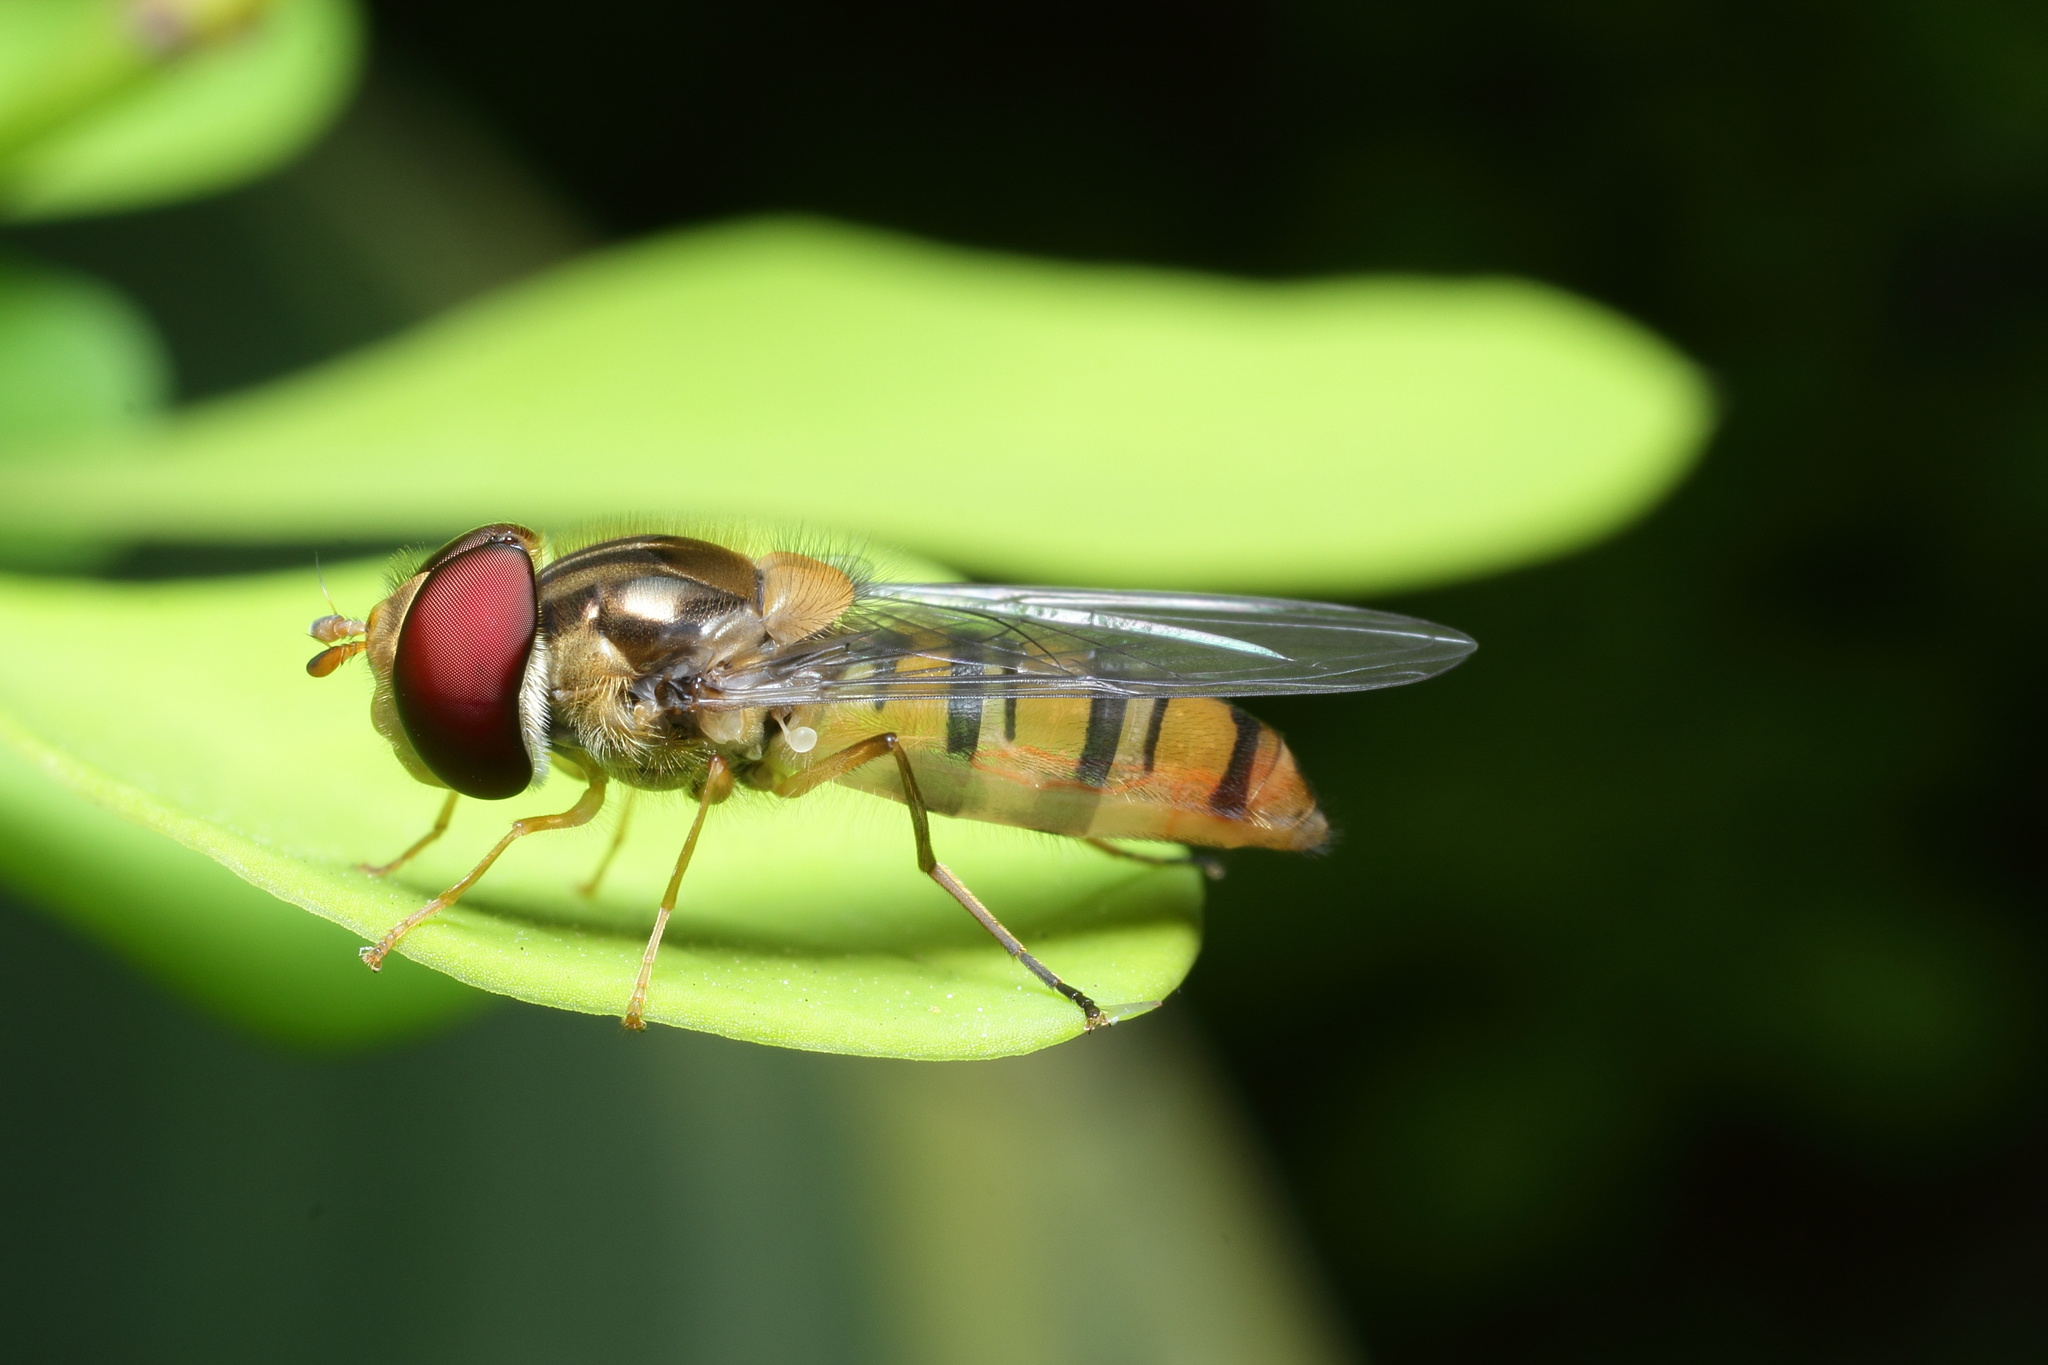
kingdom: Animalia
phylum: Arthropoda
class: Insecta
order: Diptera
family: Syrphidae
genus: Episyrphus
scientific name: Episyrphus balteatus
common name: Marmalade hoverfly
